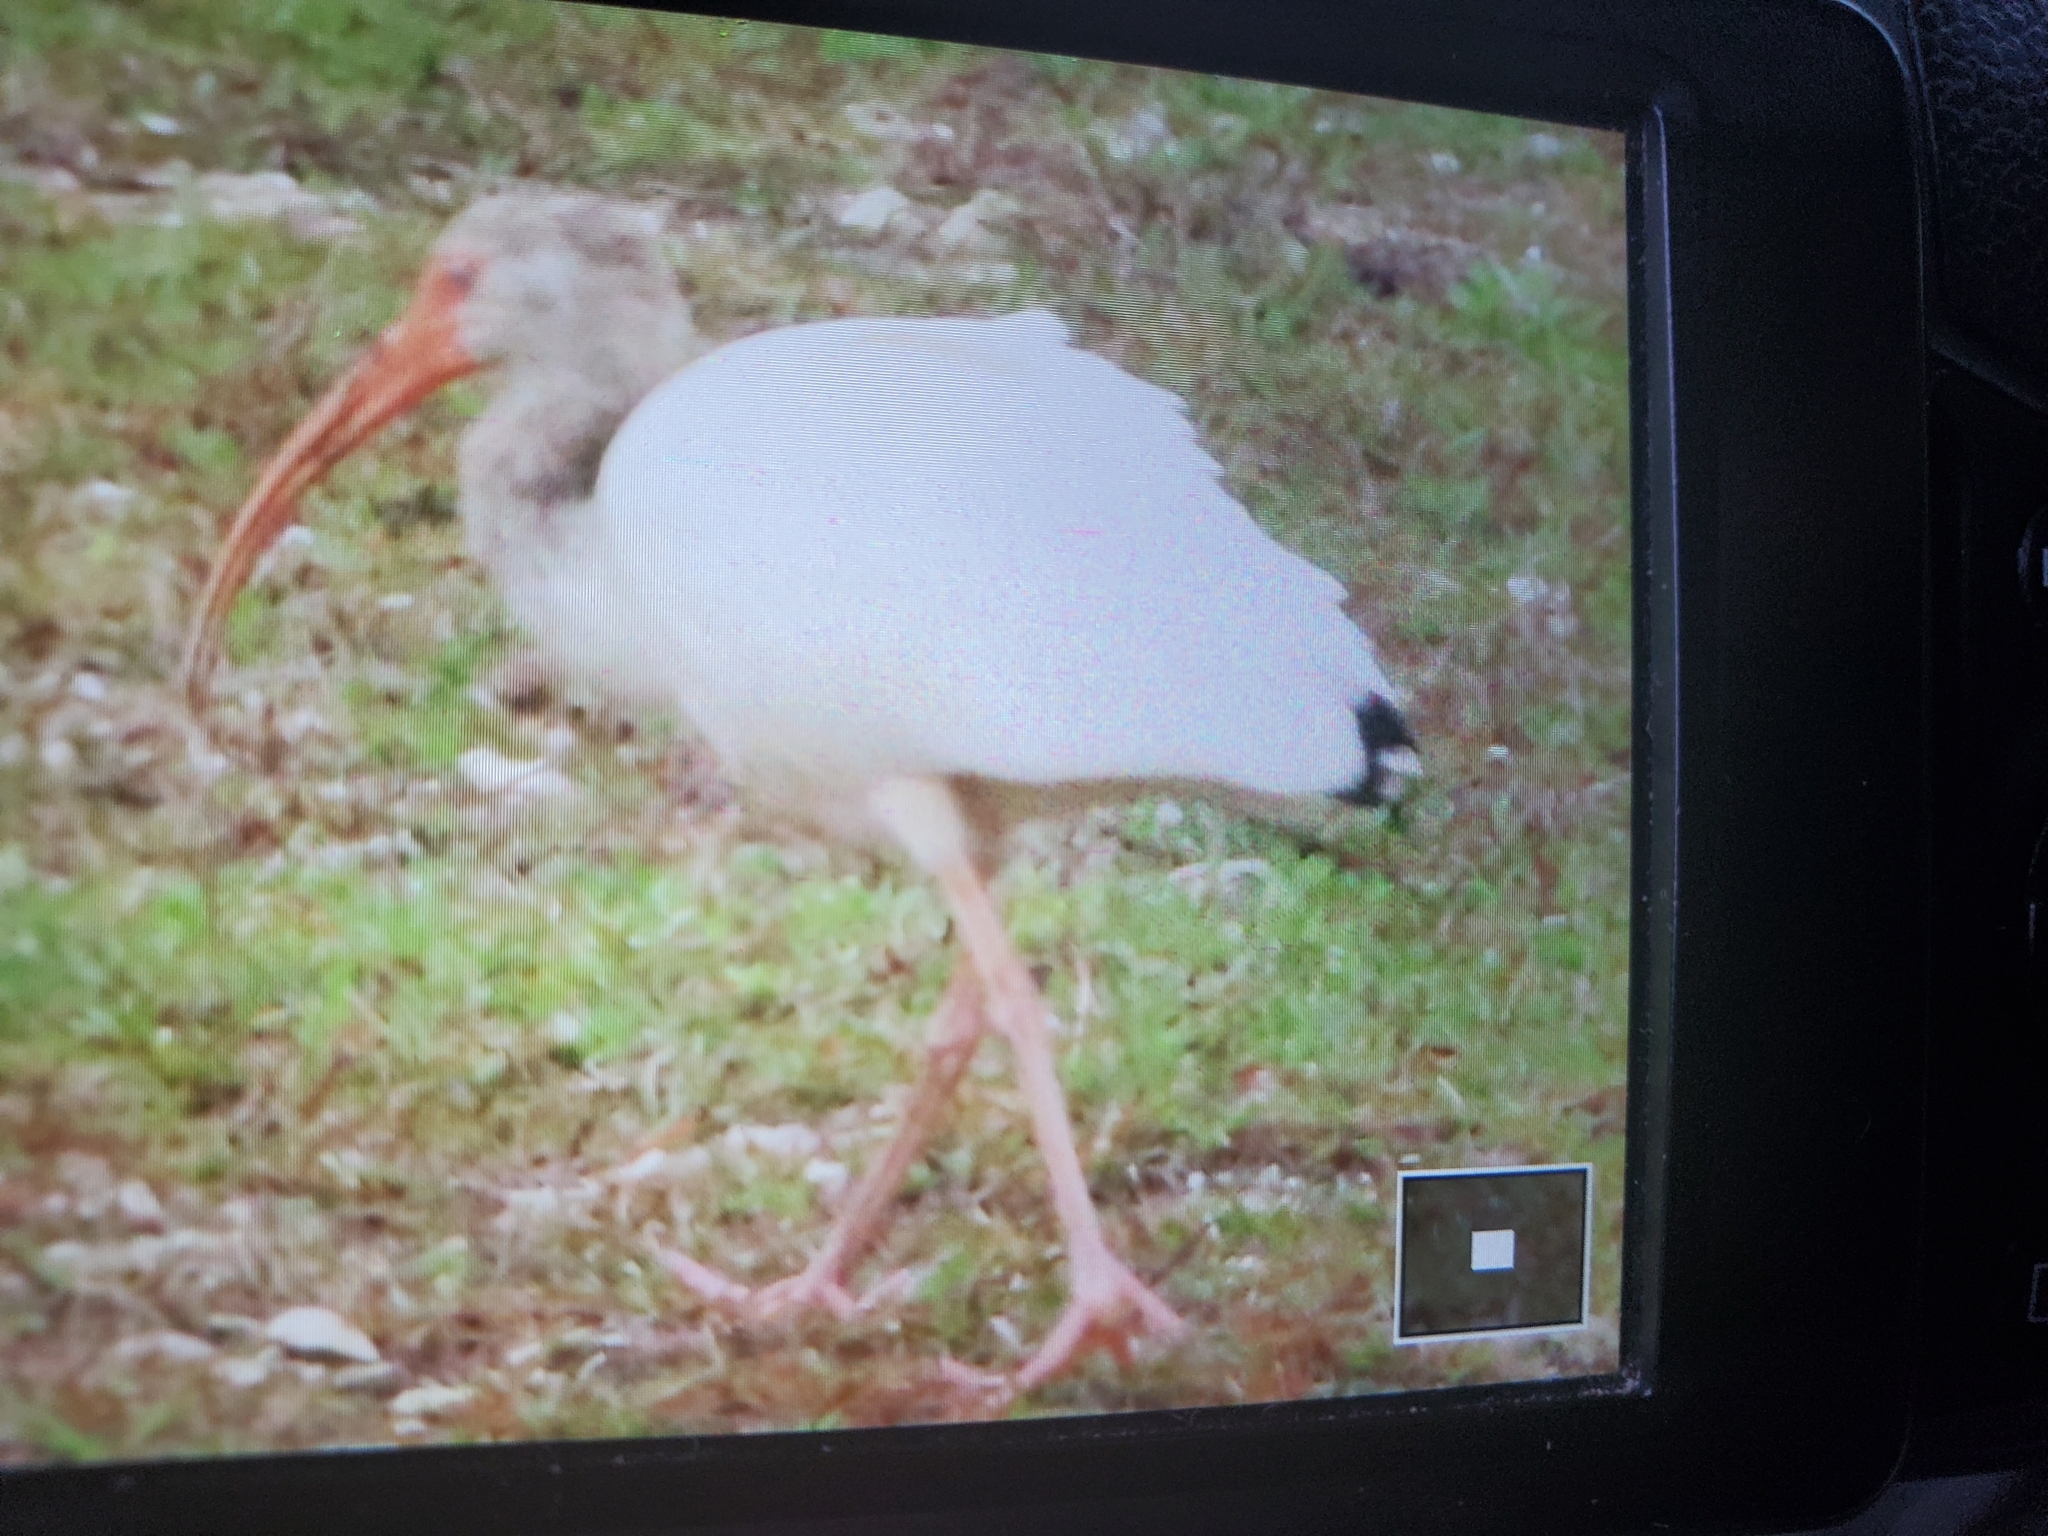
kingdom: Animalia
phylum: Chordata
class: Aves
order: Pelecaniformes
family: Threskiornithidae
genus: Eudocimus
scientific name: Eudocimus albus
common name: White ibis
